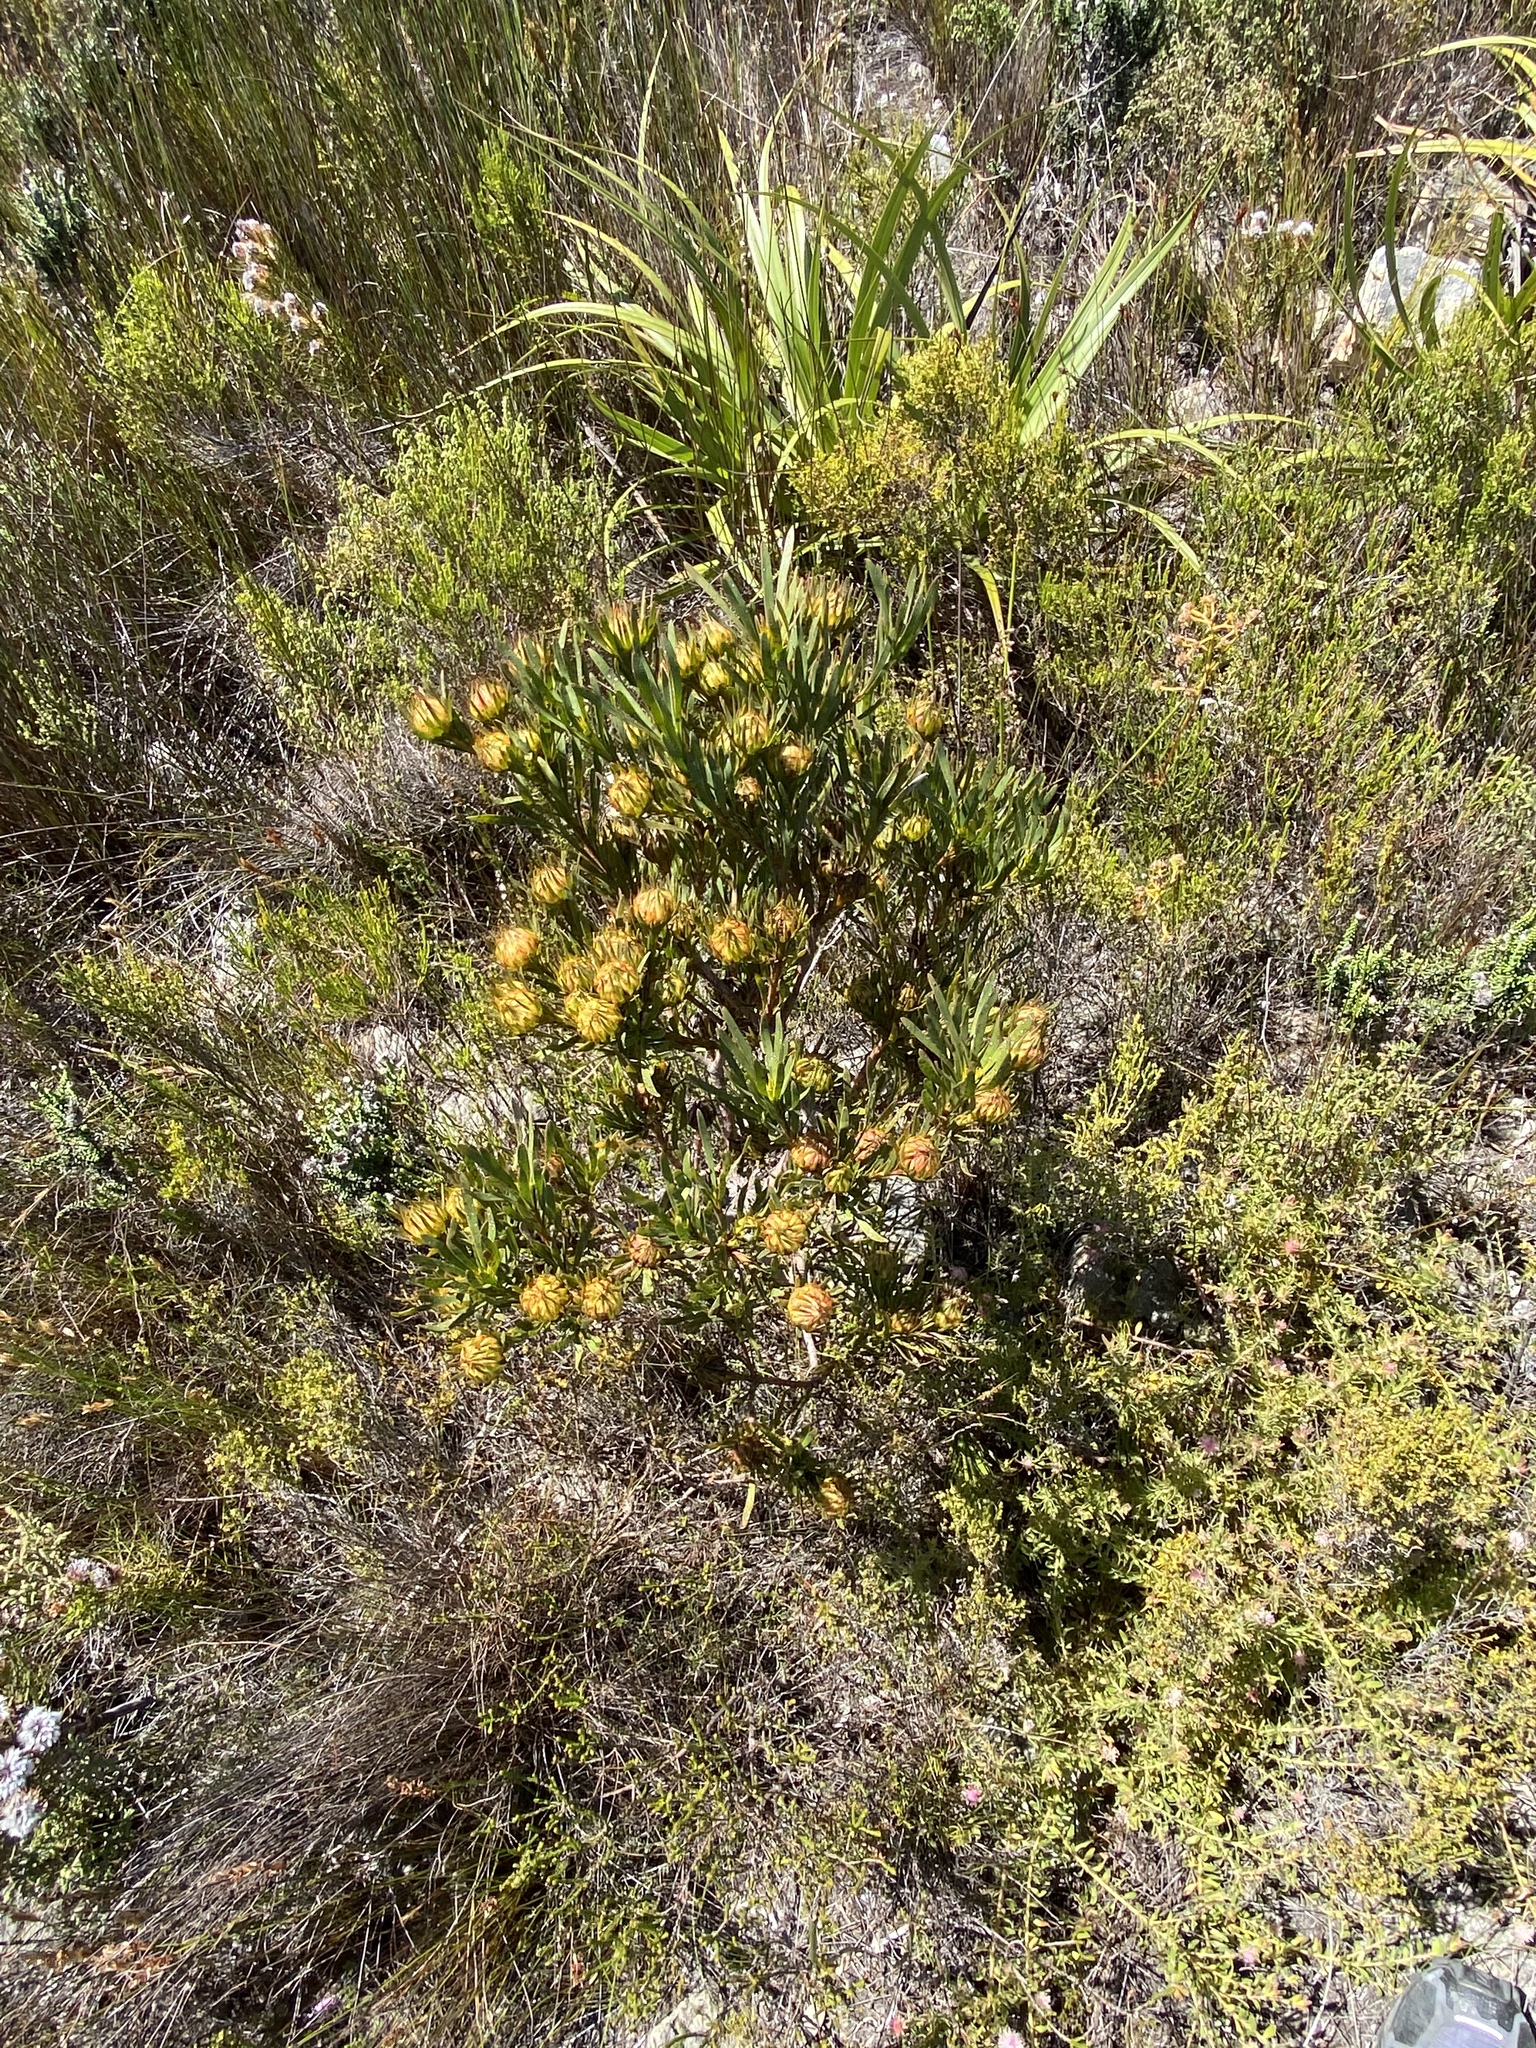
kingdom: Plantae
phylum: Tracheophyta
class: Magnoliopsida
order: Proteales
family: Proteaceae
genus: Aulax
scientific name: Aulax umbellata
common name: Broad-leaf featherbush
